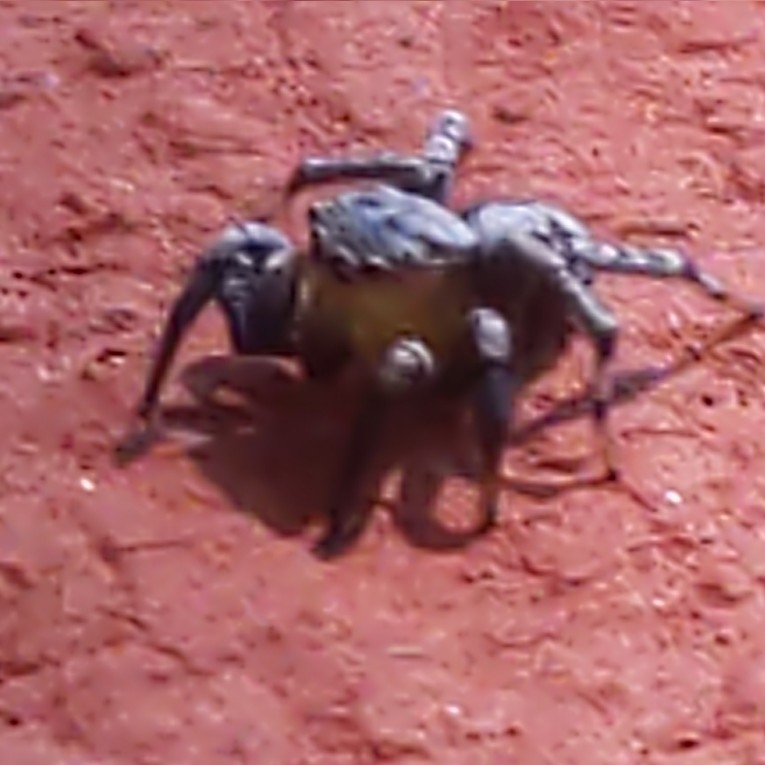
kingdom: Animalia
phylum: Arthropoda
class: Arachnida
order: Araneae
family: Salticidae
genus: Naphrys
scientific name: Naphrys pulex
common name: Flea jumping spider
